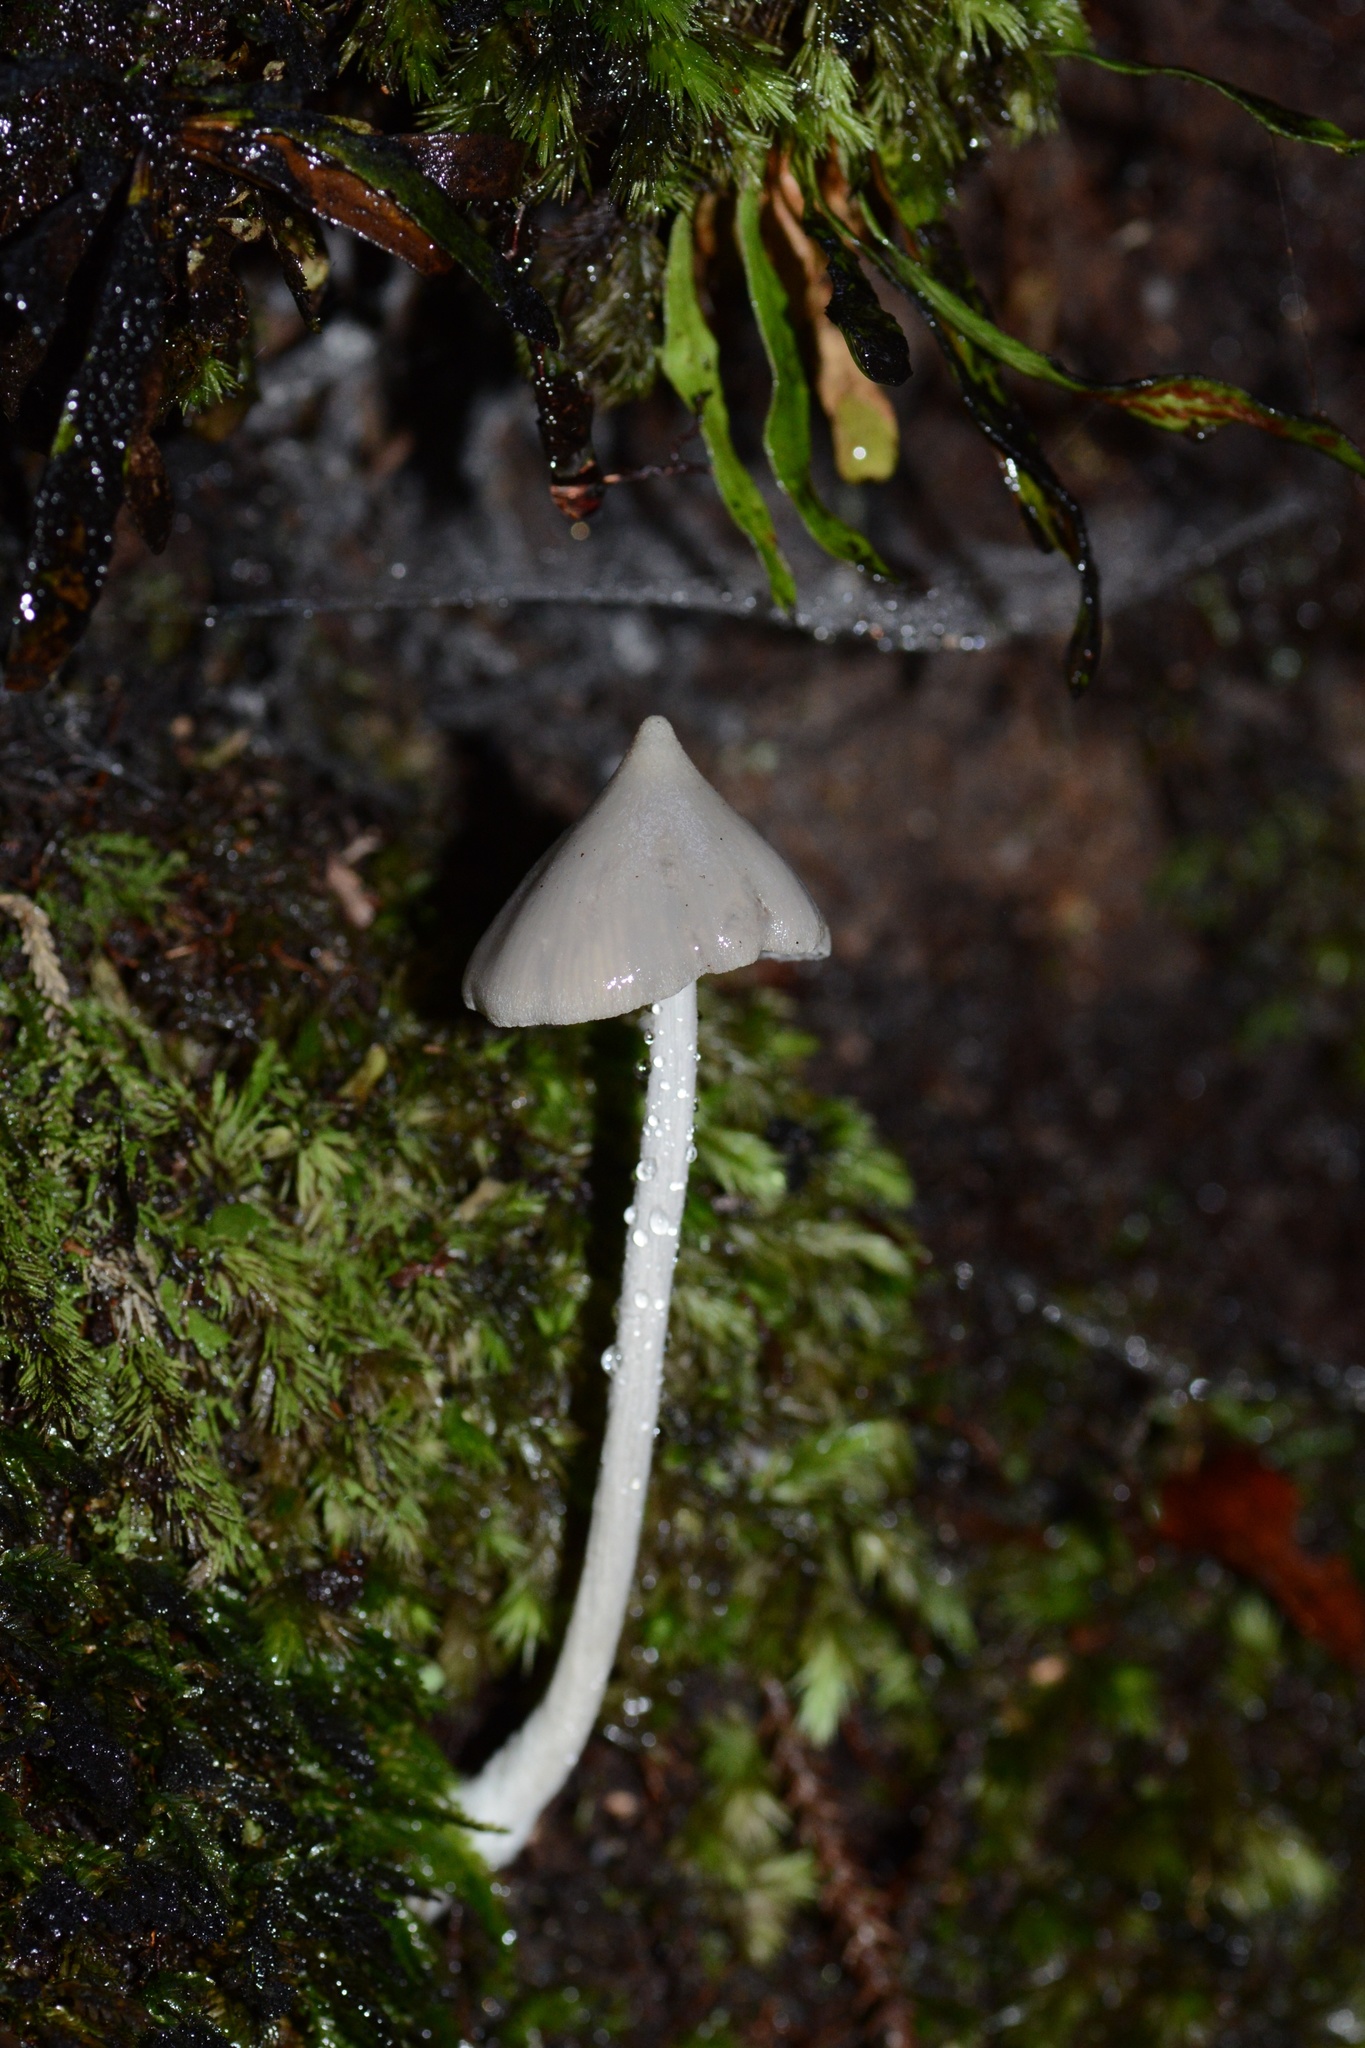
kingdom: Fungi
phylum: Basidiomycota
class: Agaricomycetes
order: Agaricales
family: Entolomataceae
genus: Entoloma
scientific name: Entoloma canoconicum
